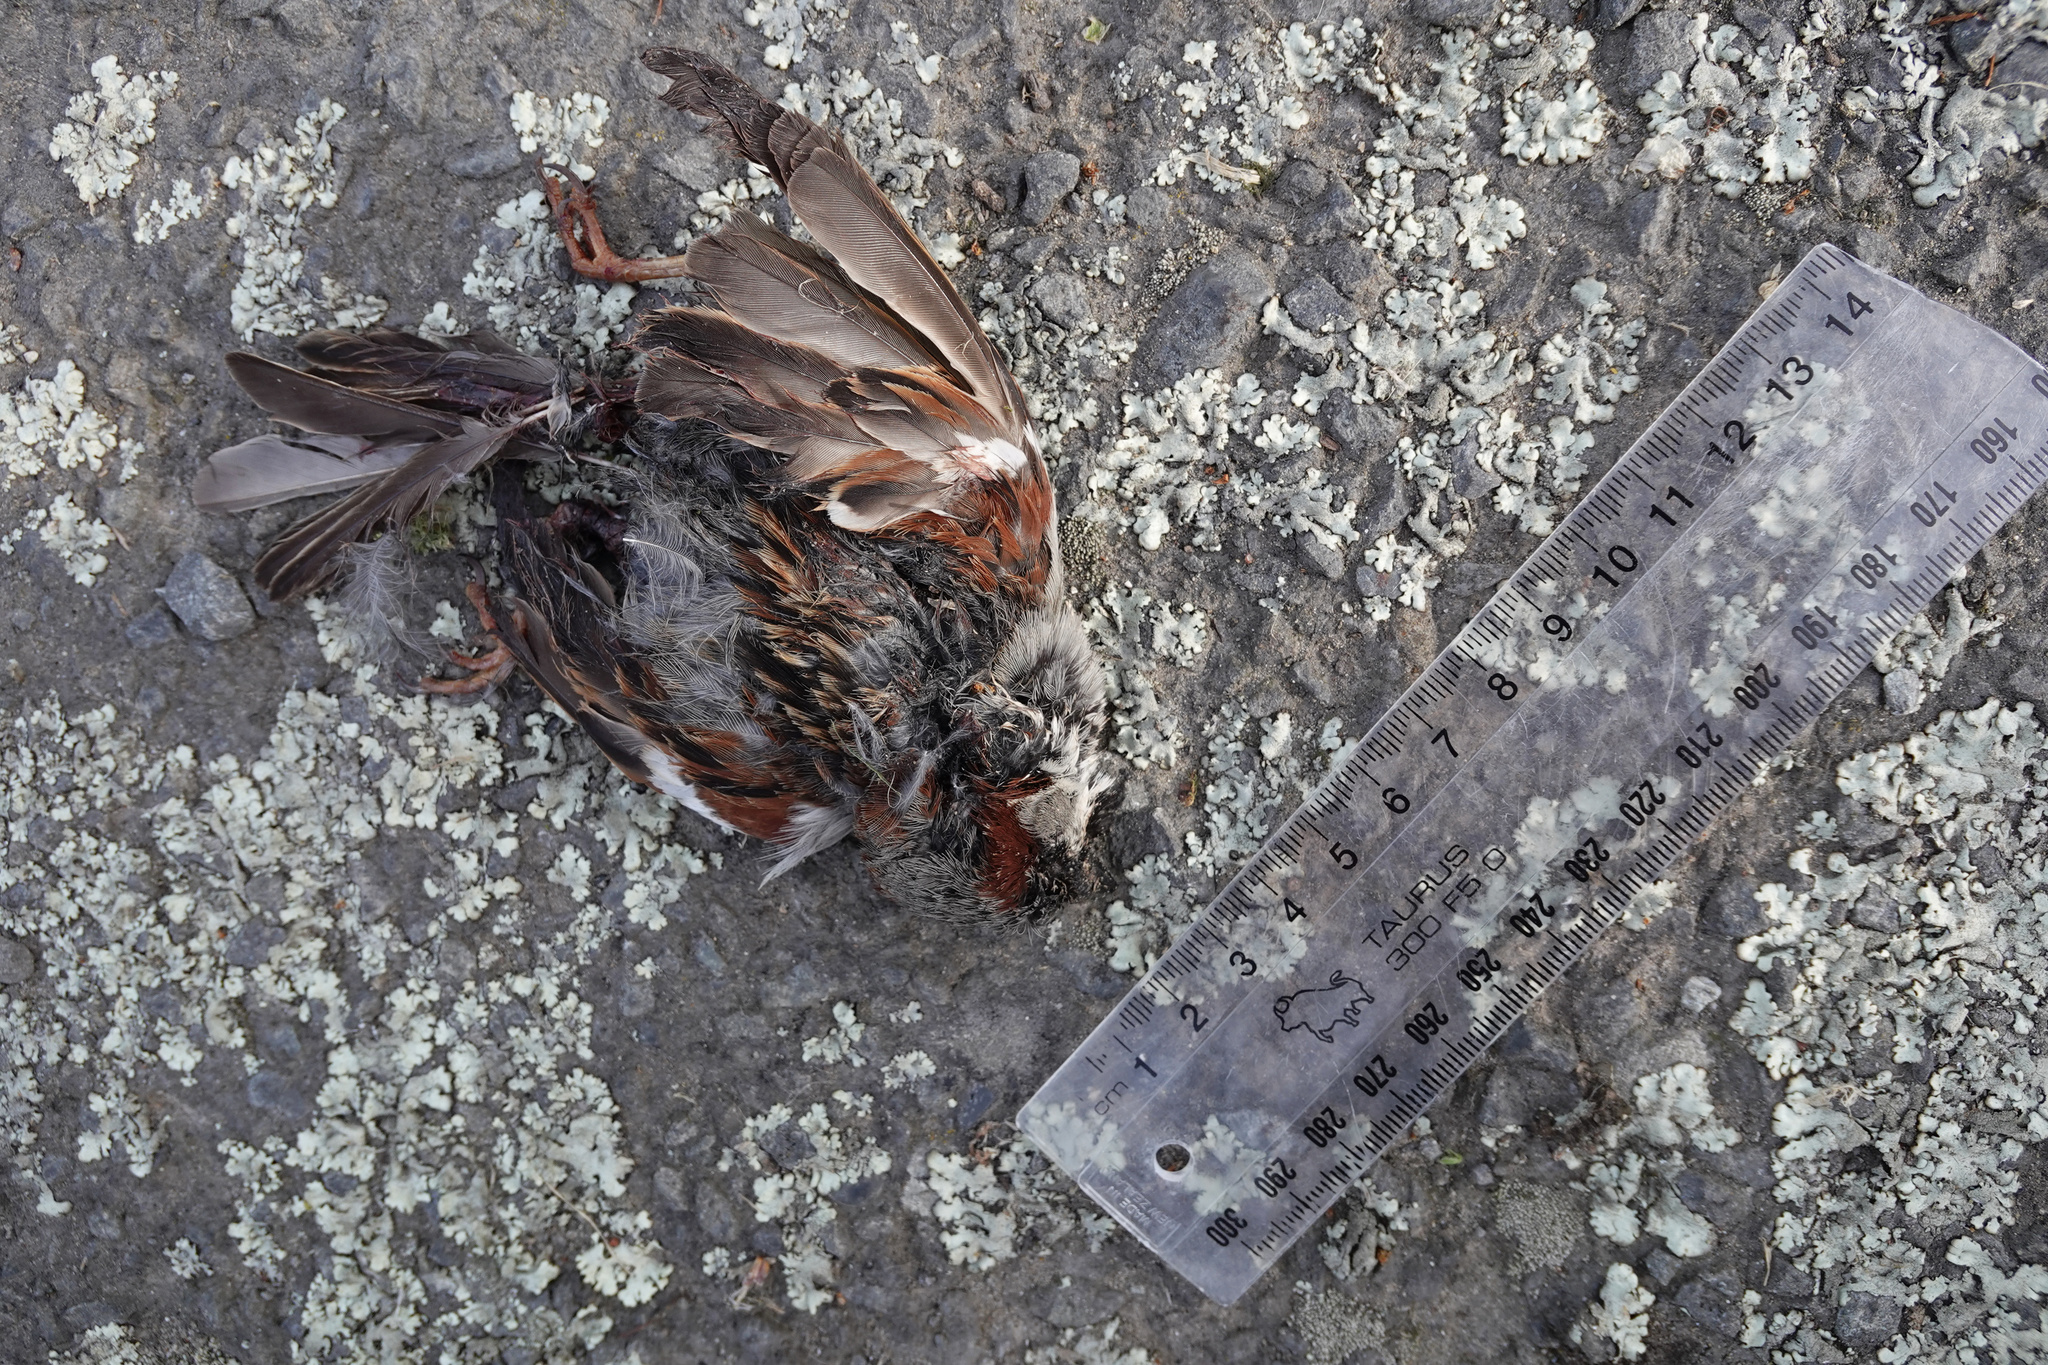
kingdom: Animalia
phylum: Chordata
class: Aves
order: Passeriformes
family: Passeridae
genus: Passer
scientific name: Passer domesticus
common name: House sparrow
